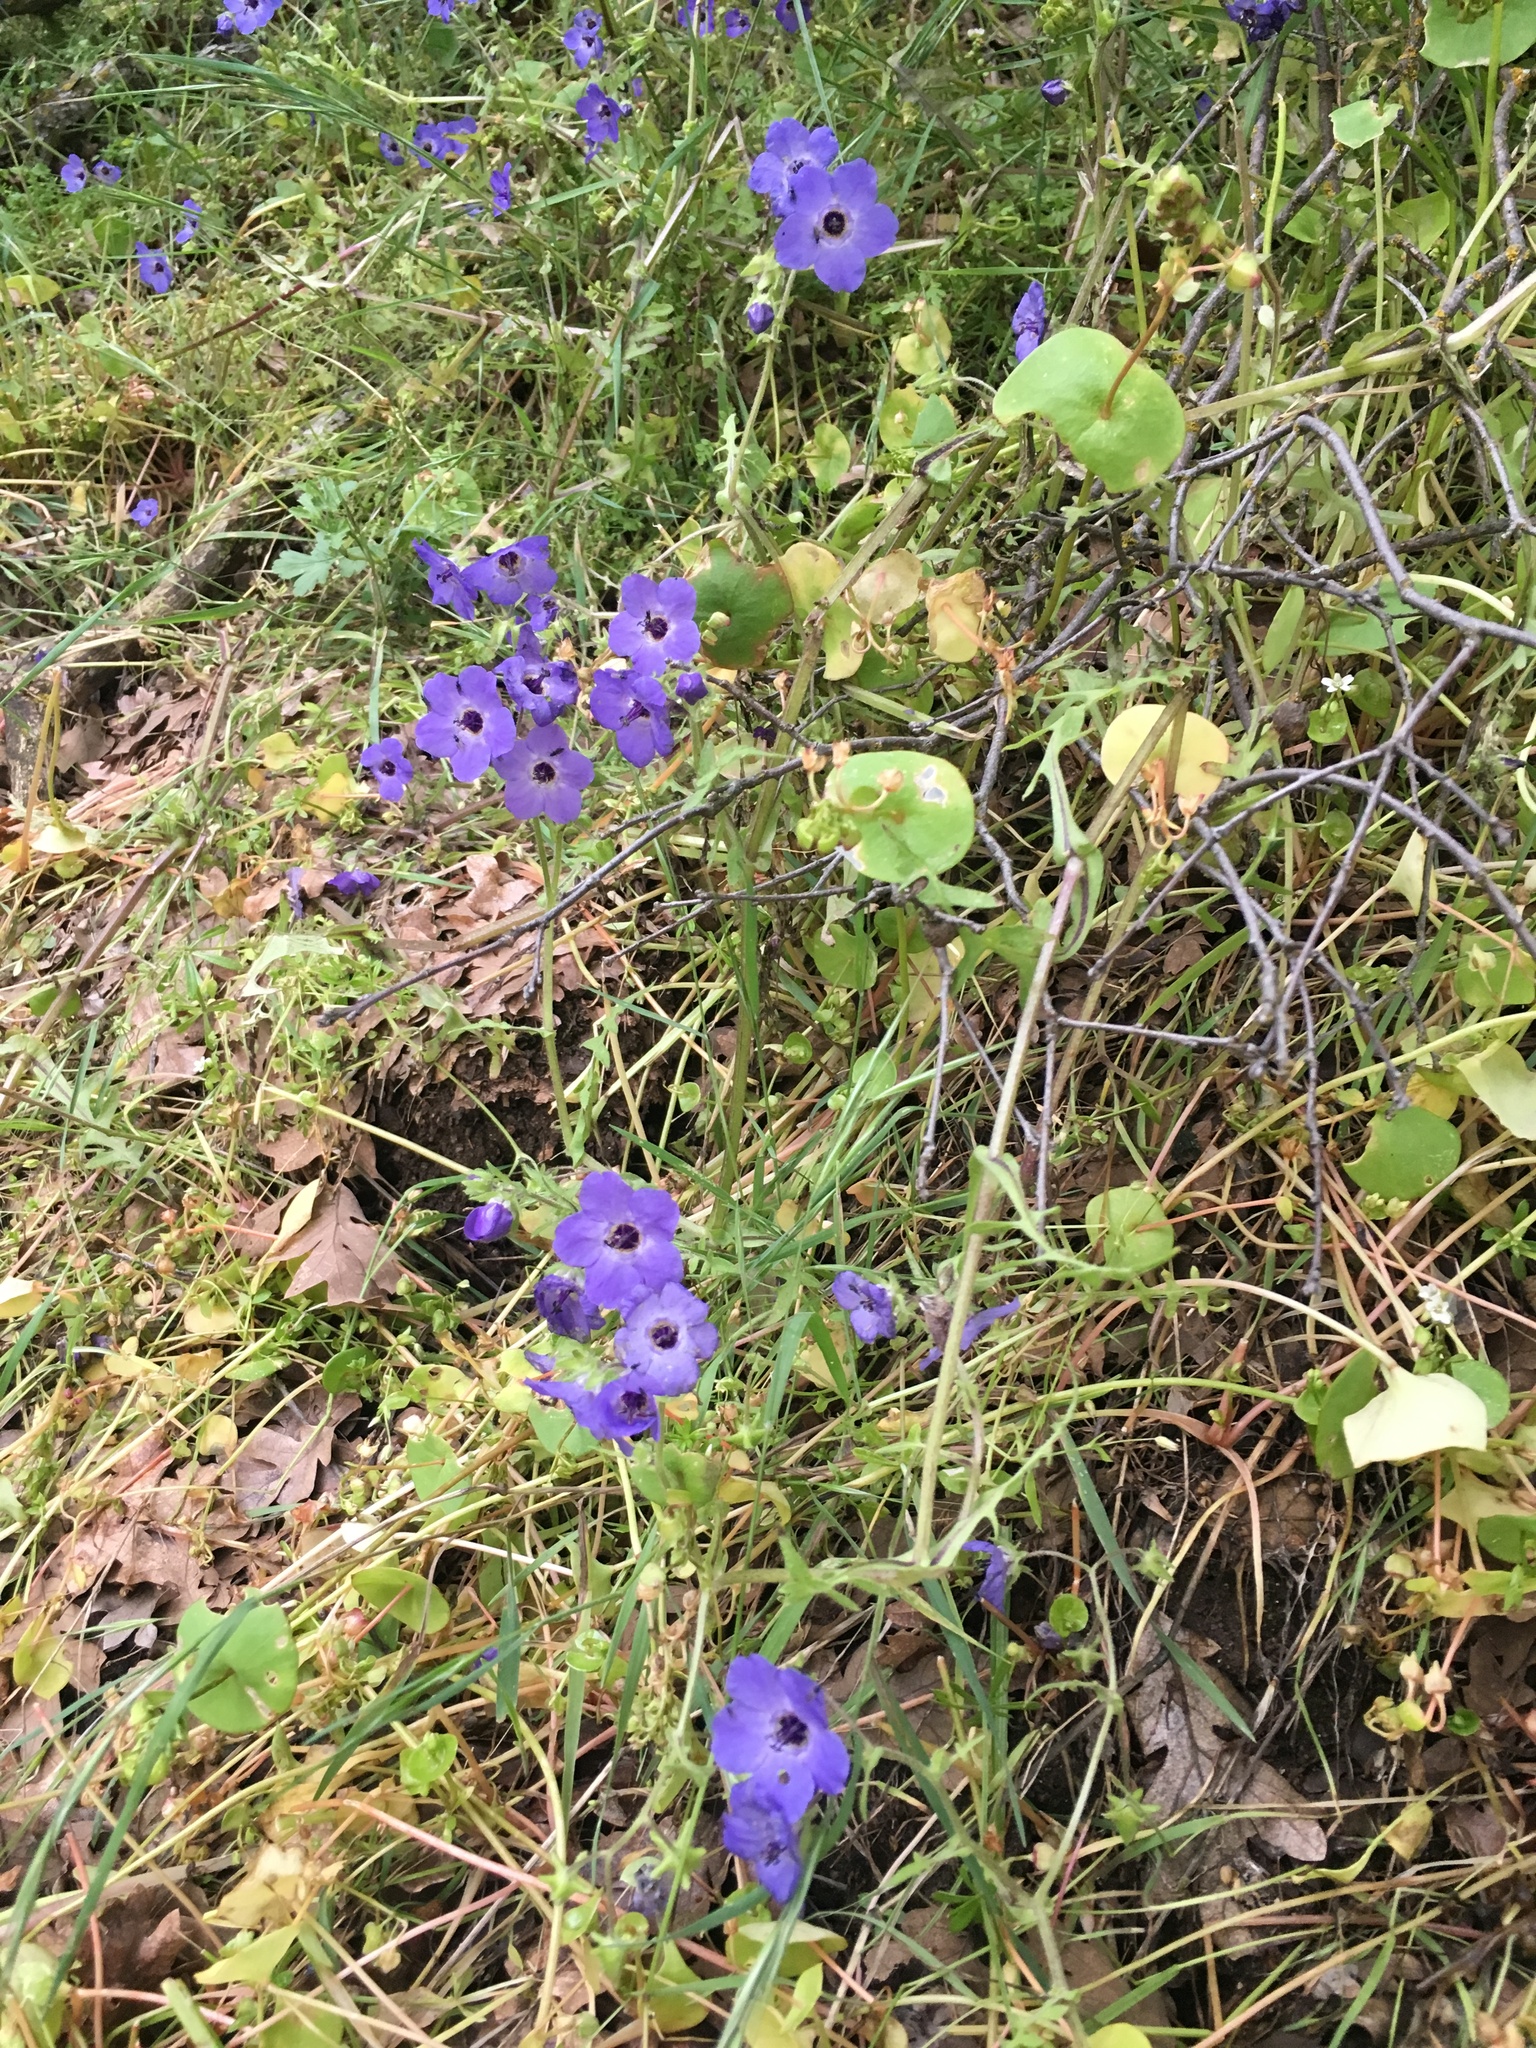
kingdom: Plantae
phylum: Tracheophyta
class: Magnoliopsida
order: Boraginales
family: Hydrophyllaceae
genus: Pholistoma
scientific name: Pholistoma auritum
